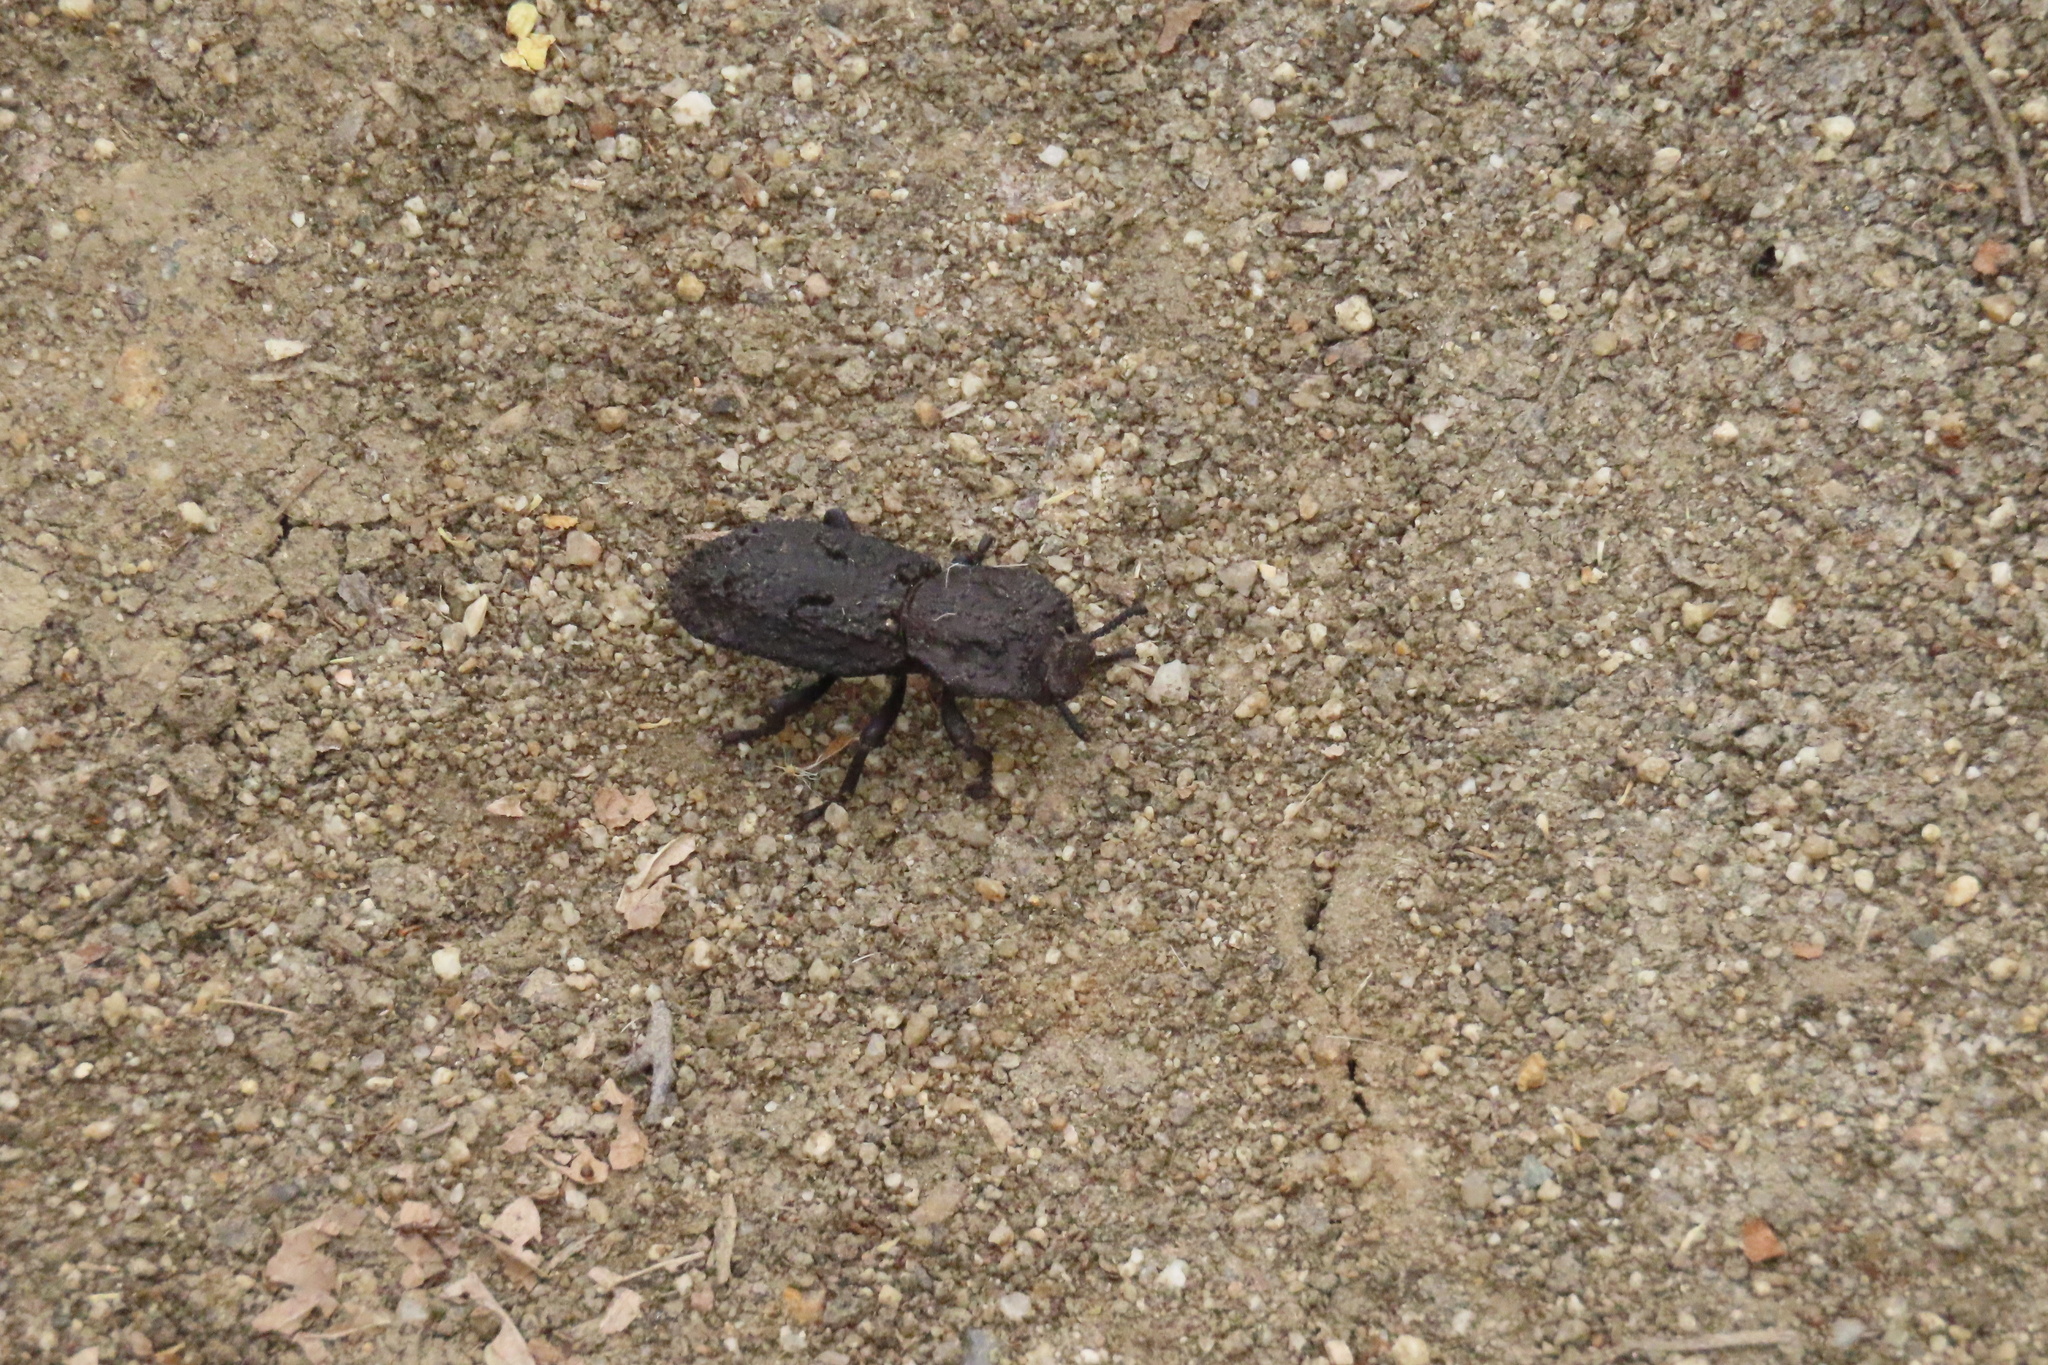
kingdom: Animalia
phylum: Arthropoda
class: Insecta
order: Coleoptera
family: Zopheridae
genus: Phloeodes
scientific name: Phloeodes diabolicus
